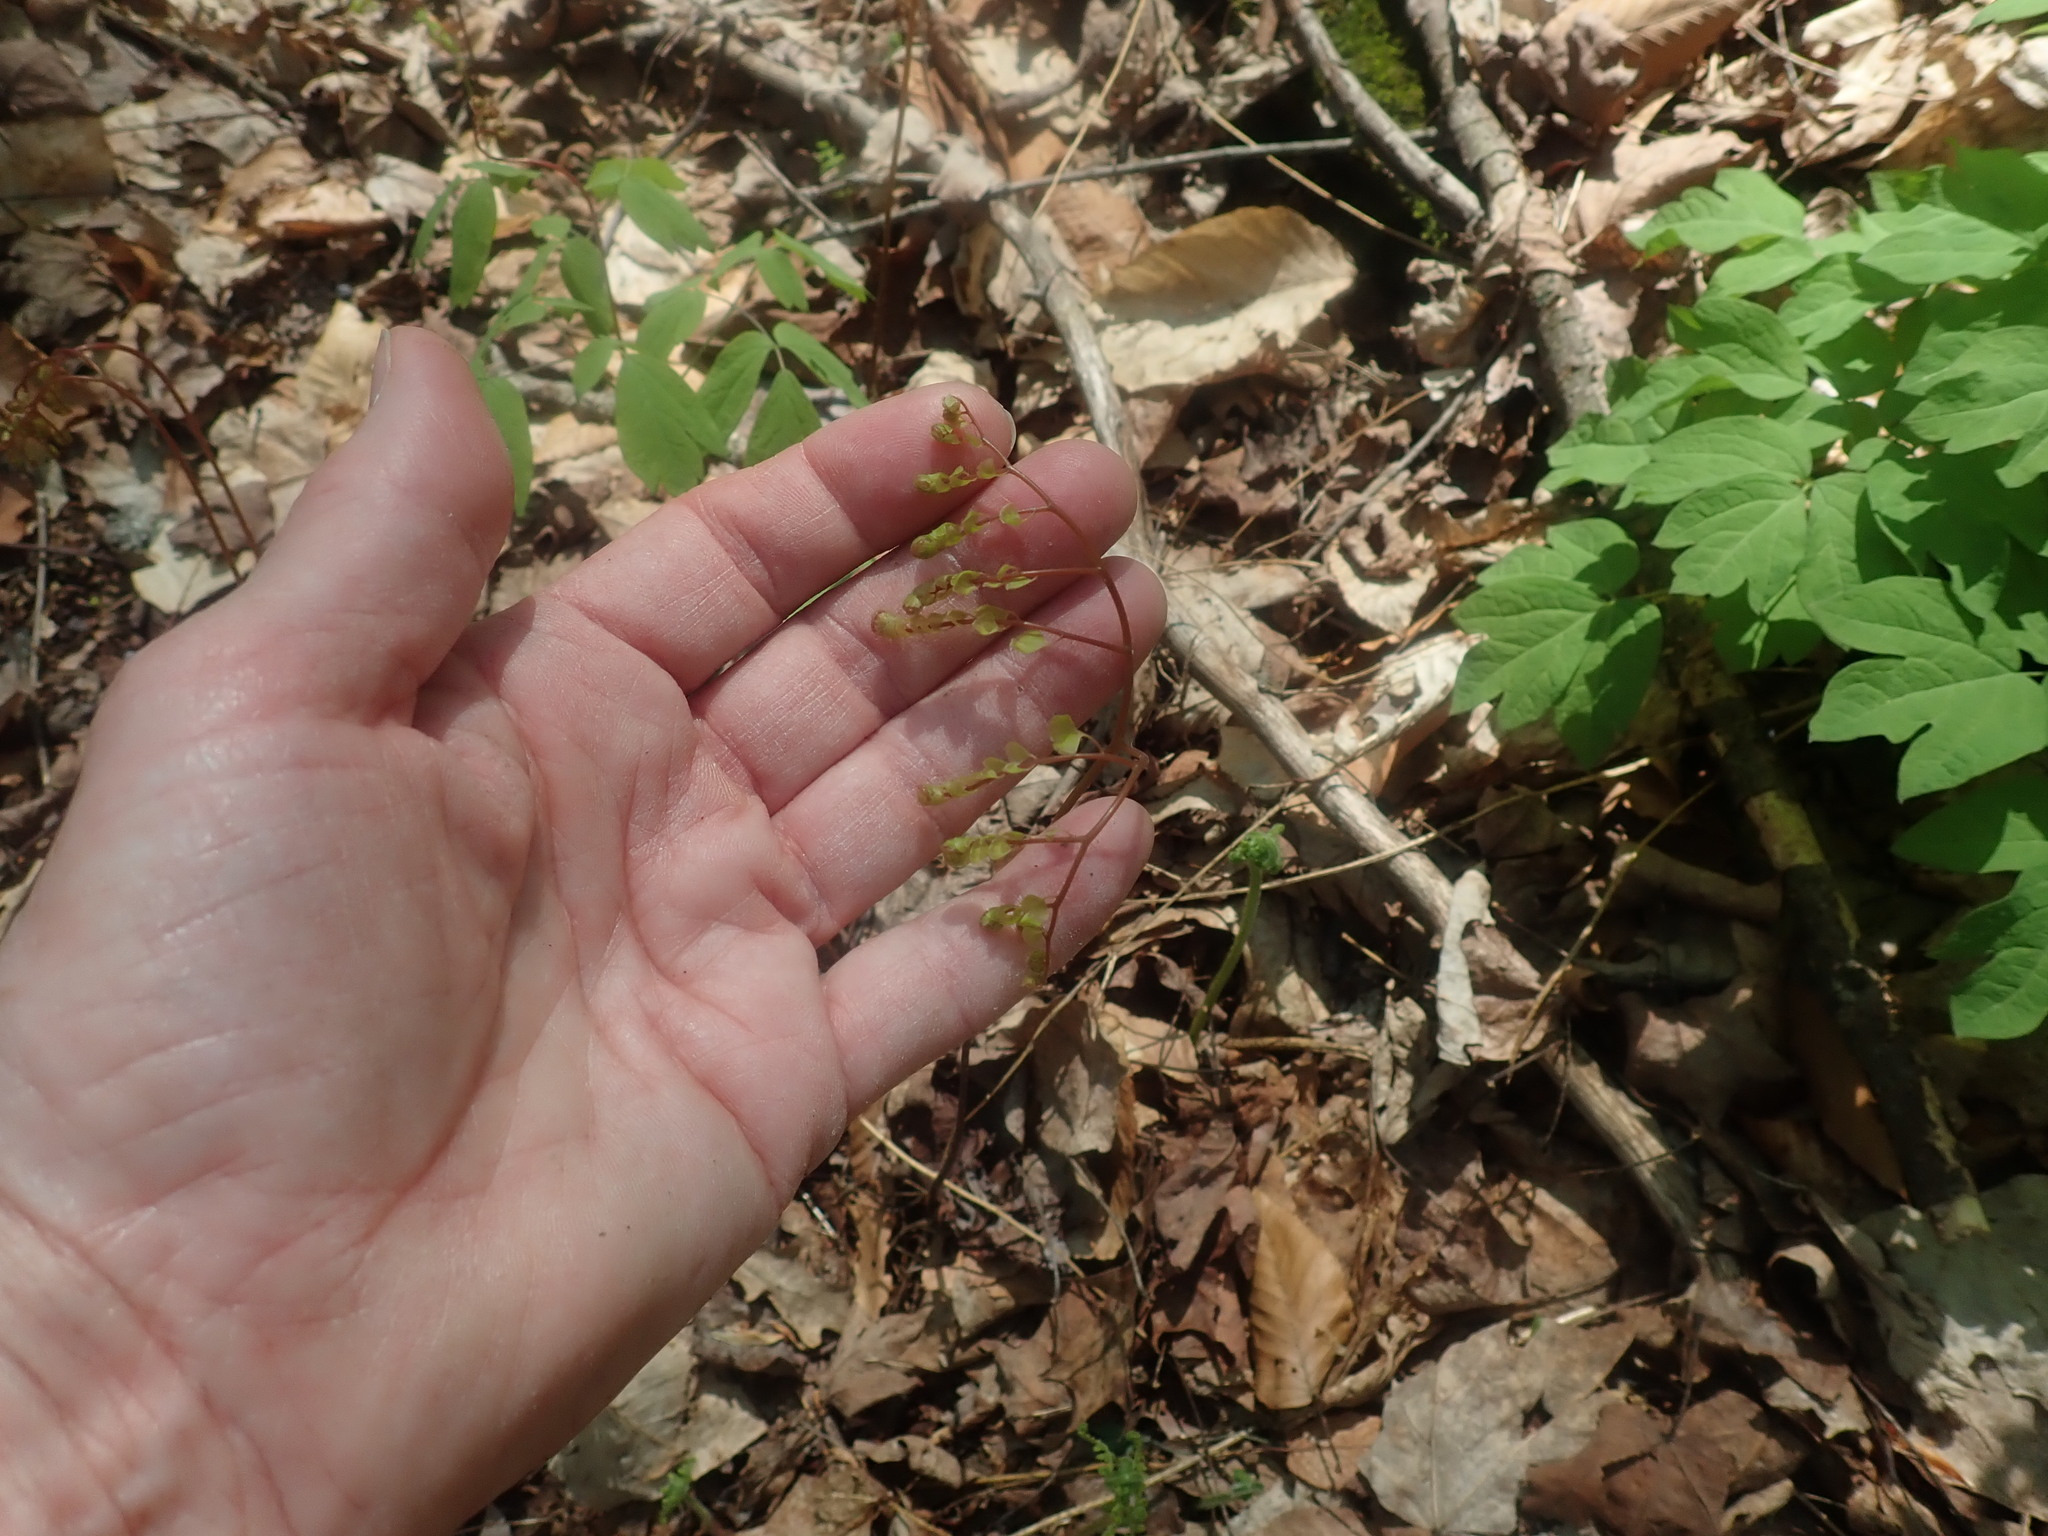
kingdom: Plantae
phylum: Tracheophyta
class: Polypodiopsida
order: Polypodiales
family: Pteridaceae
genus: Adiantum
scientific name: Adiantum pedatum
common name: Five-finger fern
